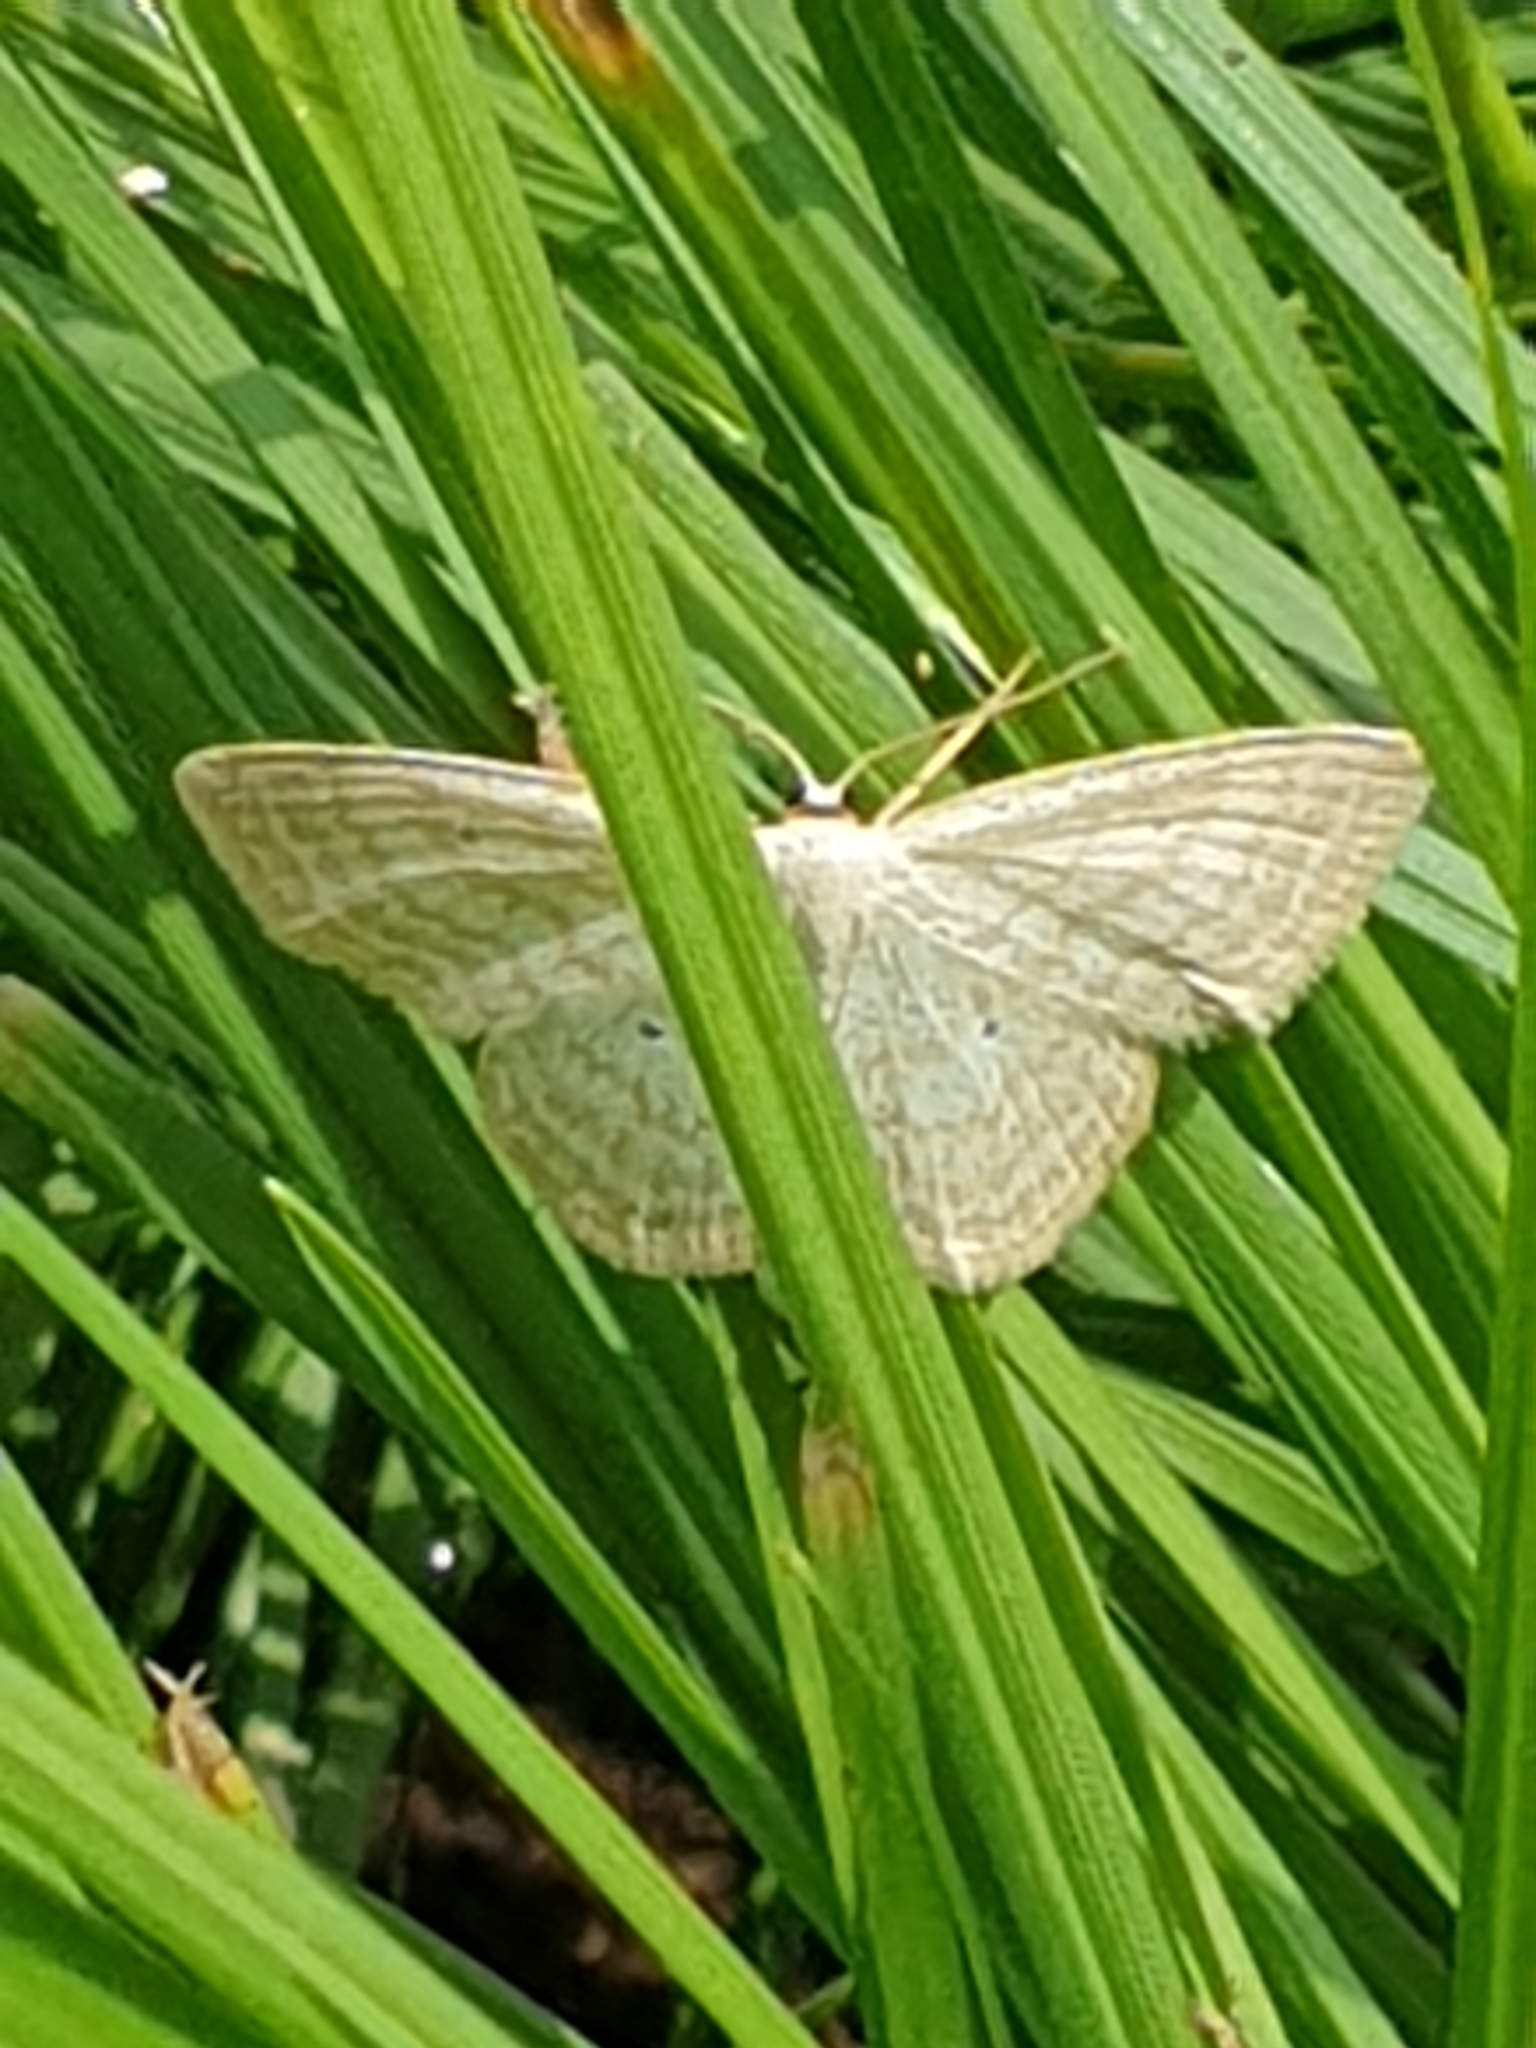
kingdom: Animalia
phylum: Arthropoda
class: Insecta
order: Lepidoptera
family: Geometridae
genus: Scopula
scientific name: Scopula immutata
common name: Lesser cream wave
